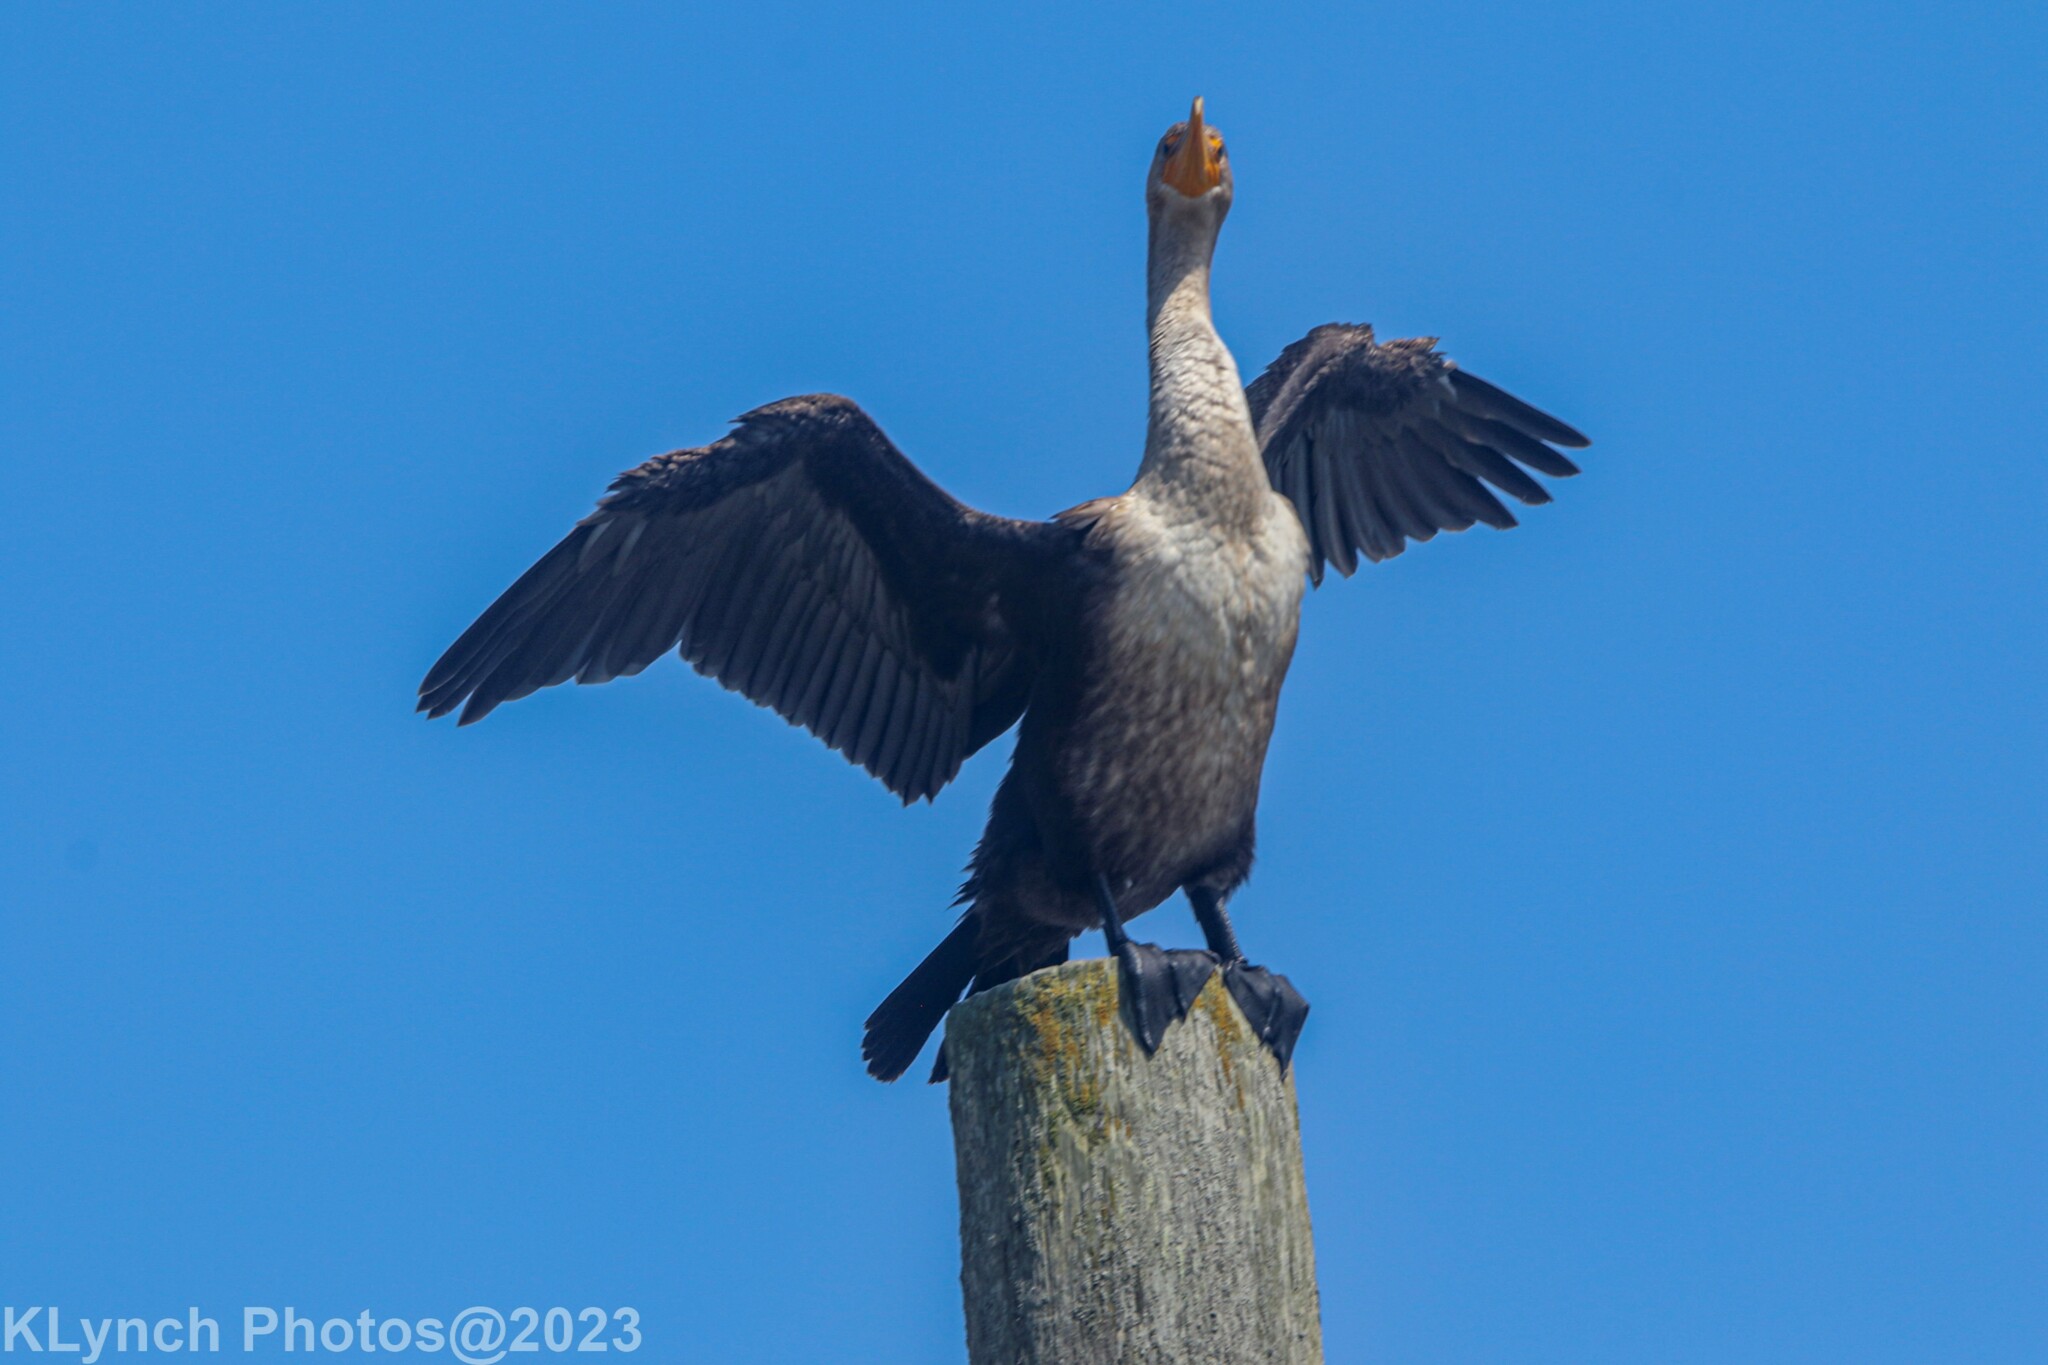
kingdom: Animalia
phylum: Chordata
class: Aves
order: Suliformes
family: Phalacrocoracidae
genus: Phalacrocorax
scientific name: Phalacrocorax auritus
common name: Double-crested cormorant
